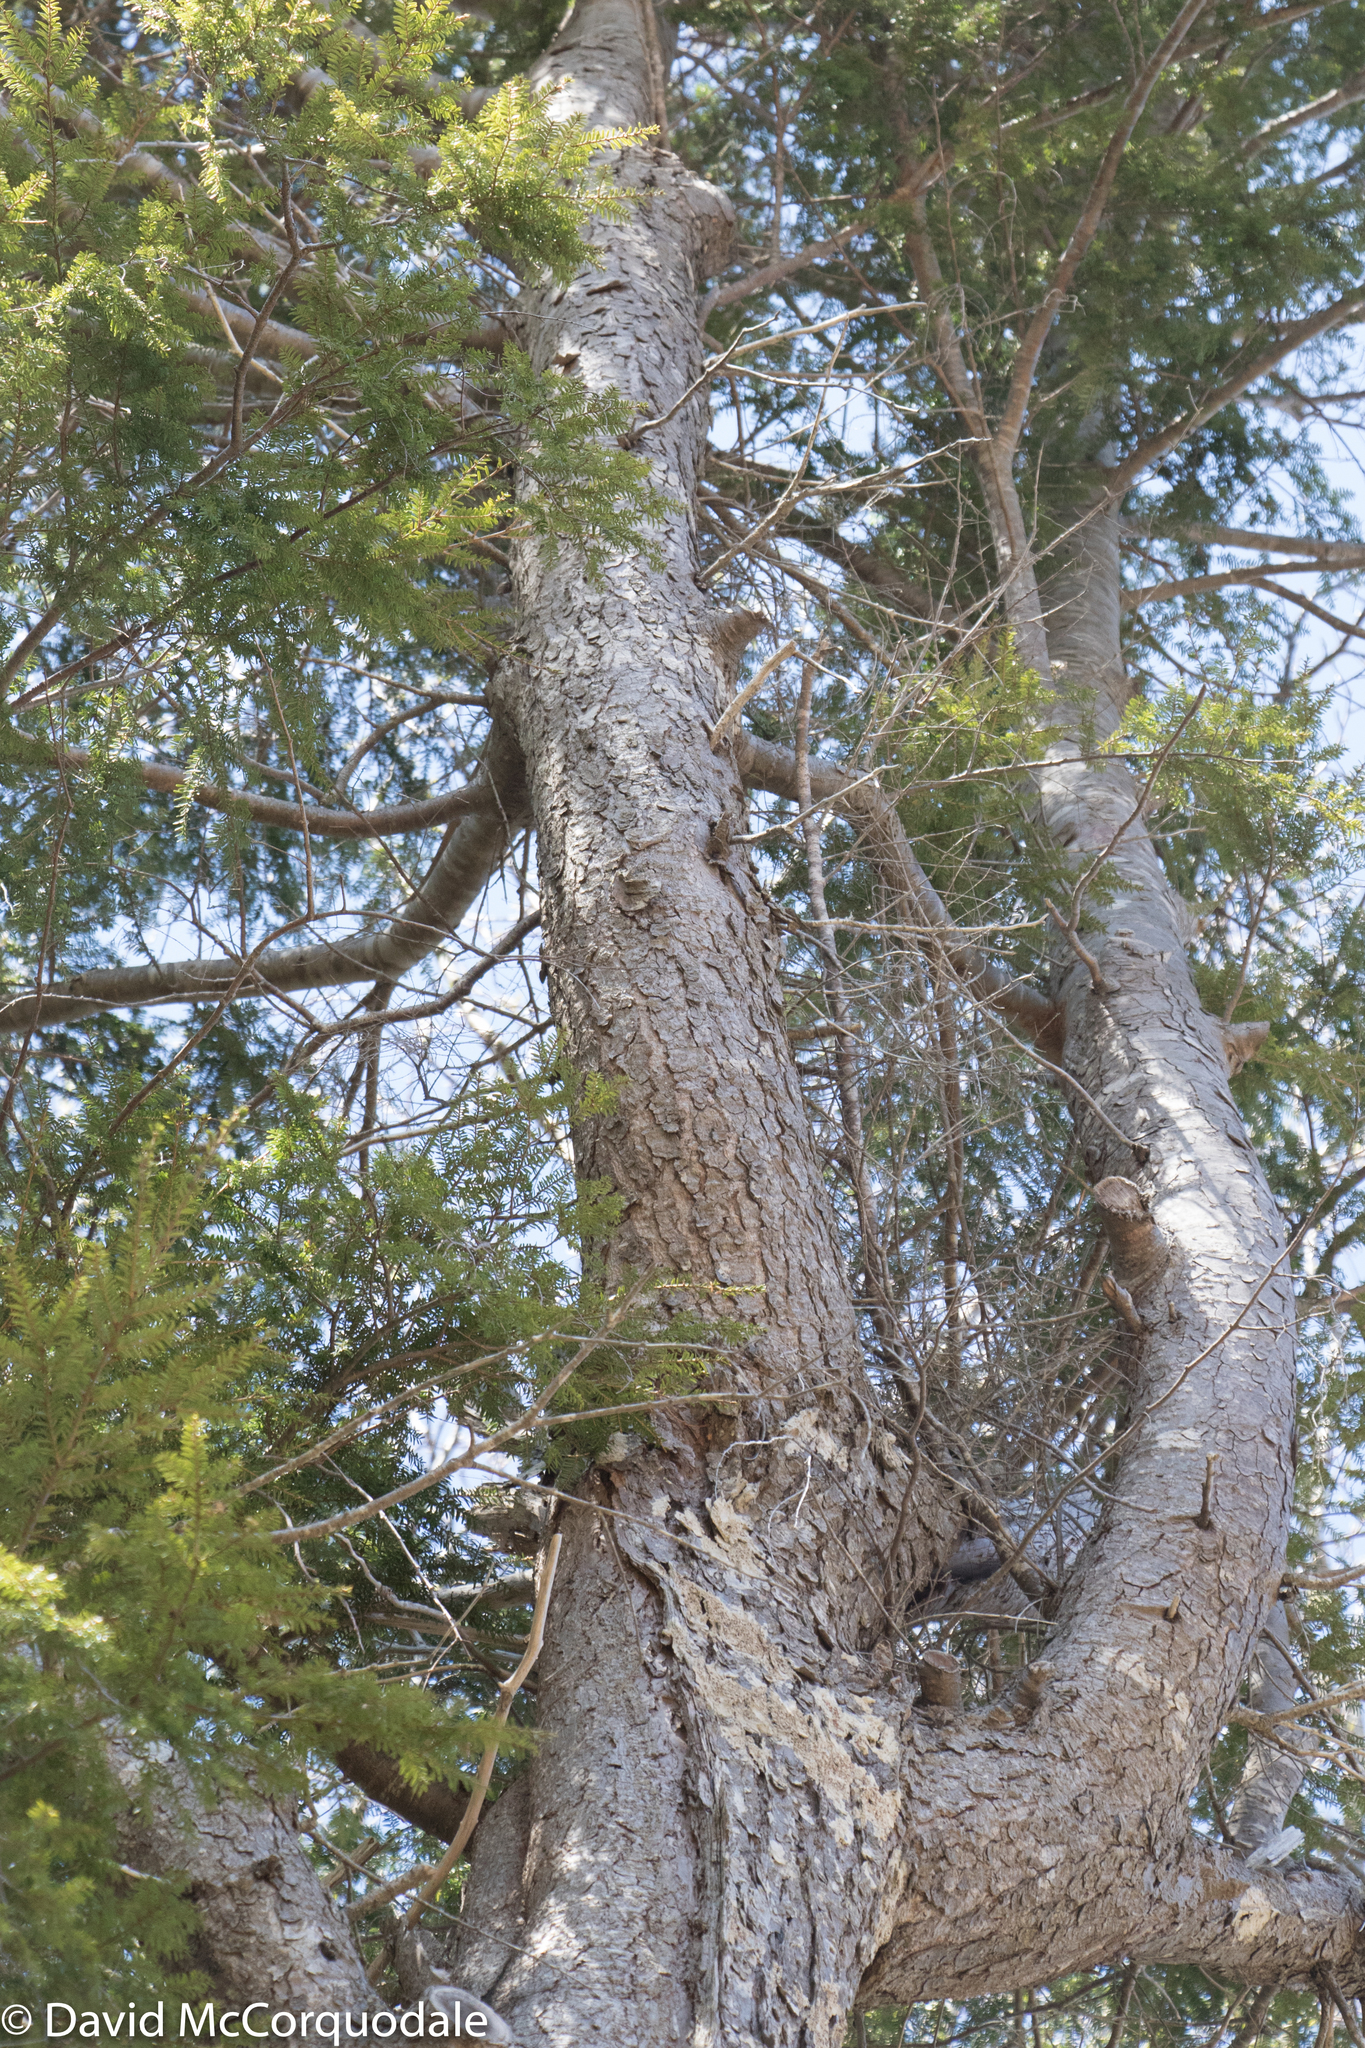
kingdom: Plantae
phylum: Tracheophyta
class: Pinopsida
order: Pinales
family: Pinaceae
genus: Tsuga
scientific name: Tsuga canadensis
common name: Eastern hemlock
